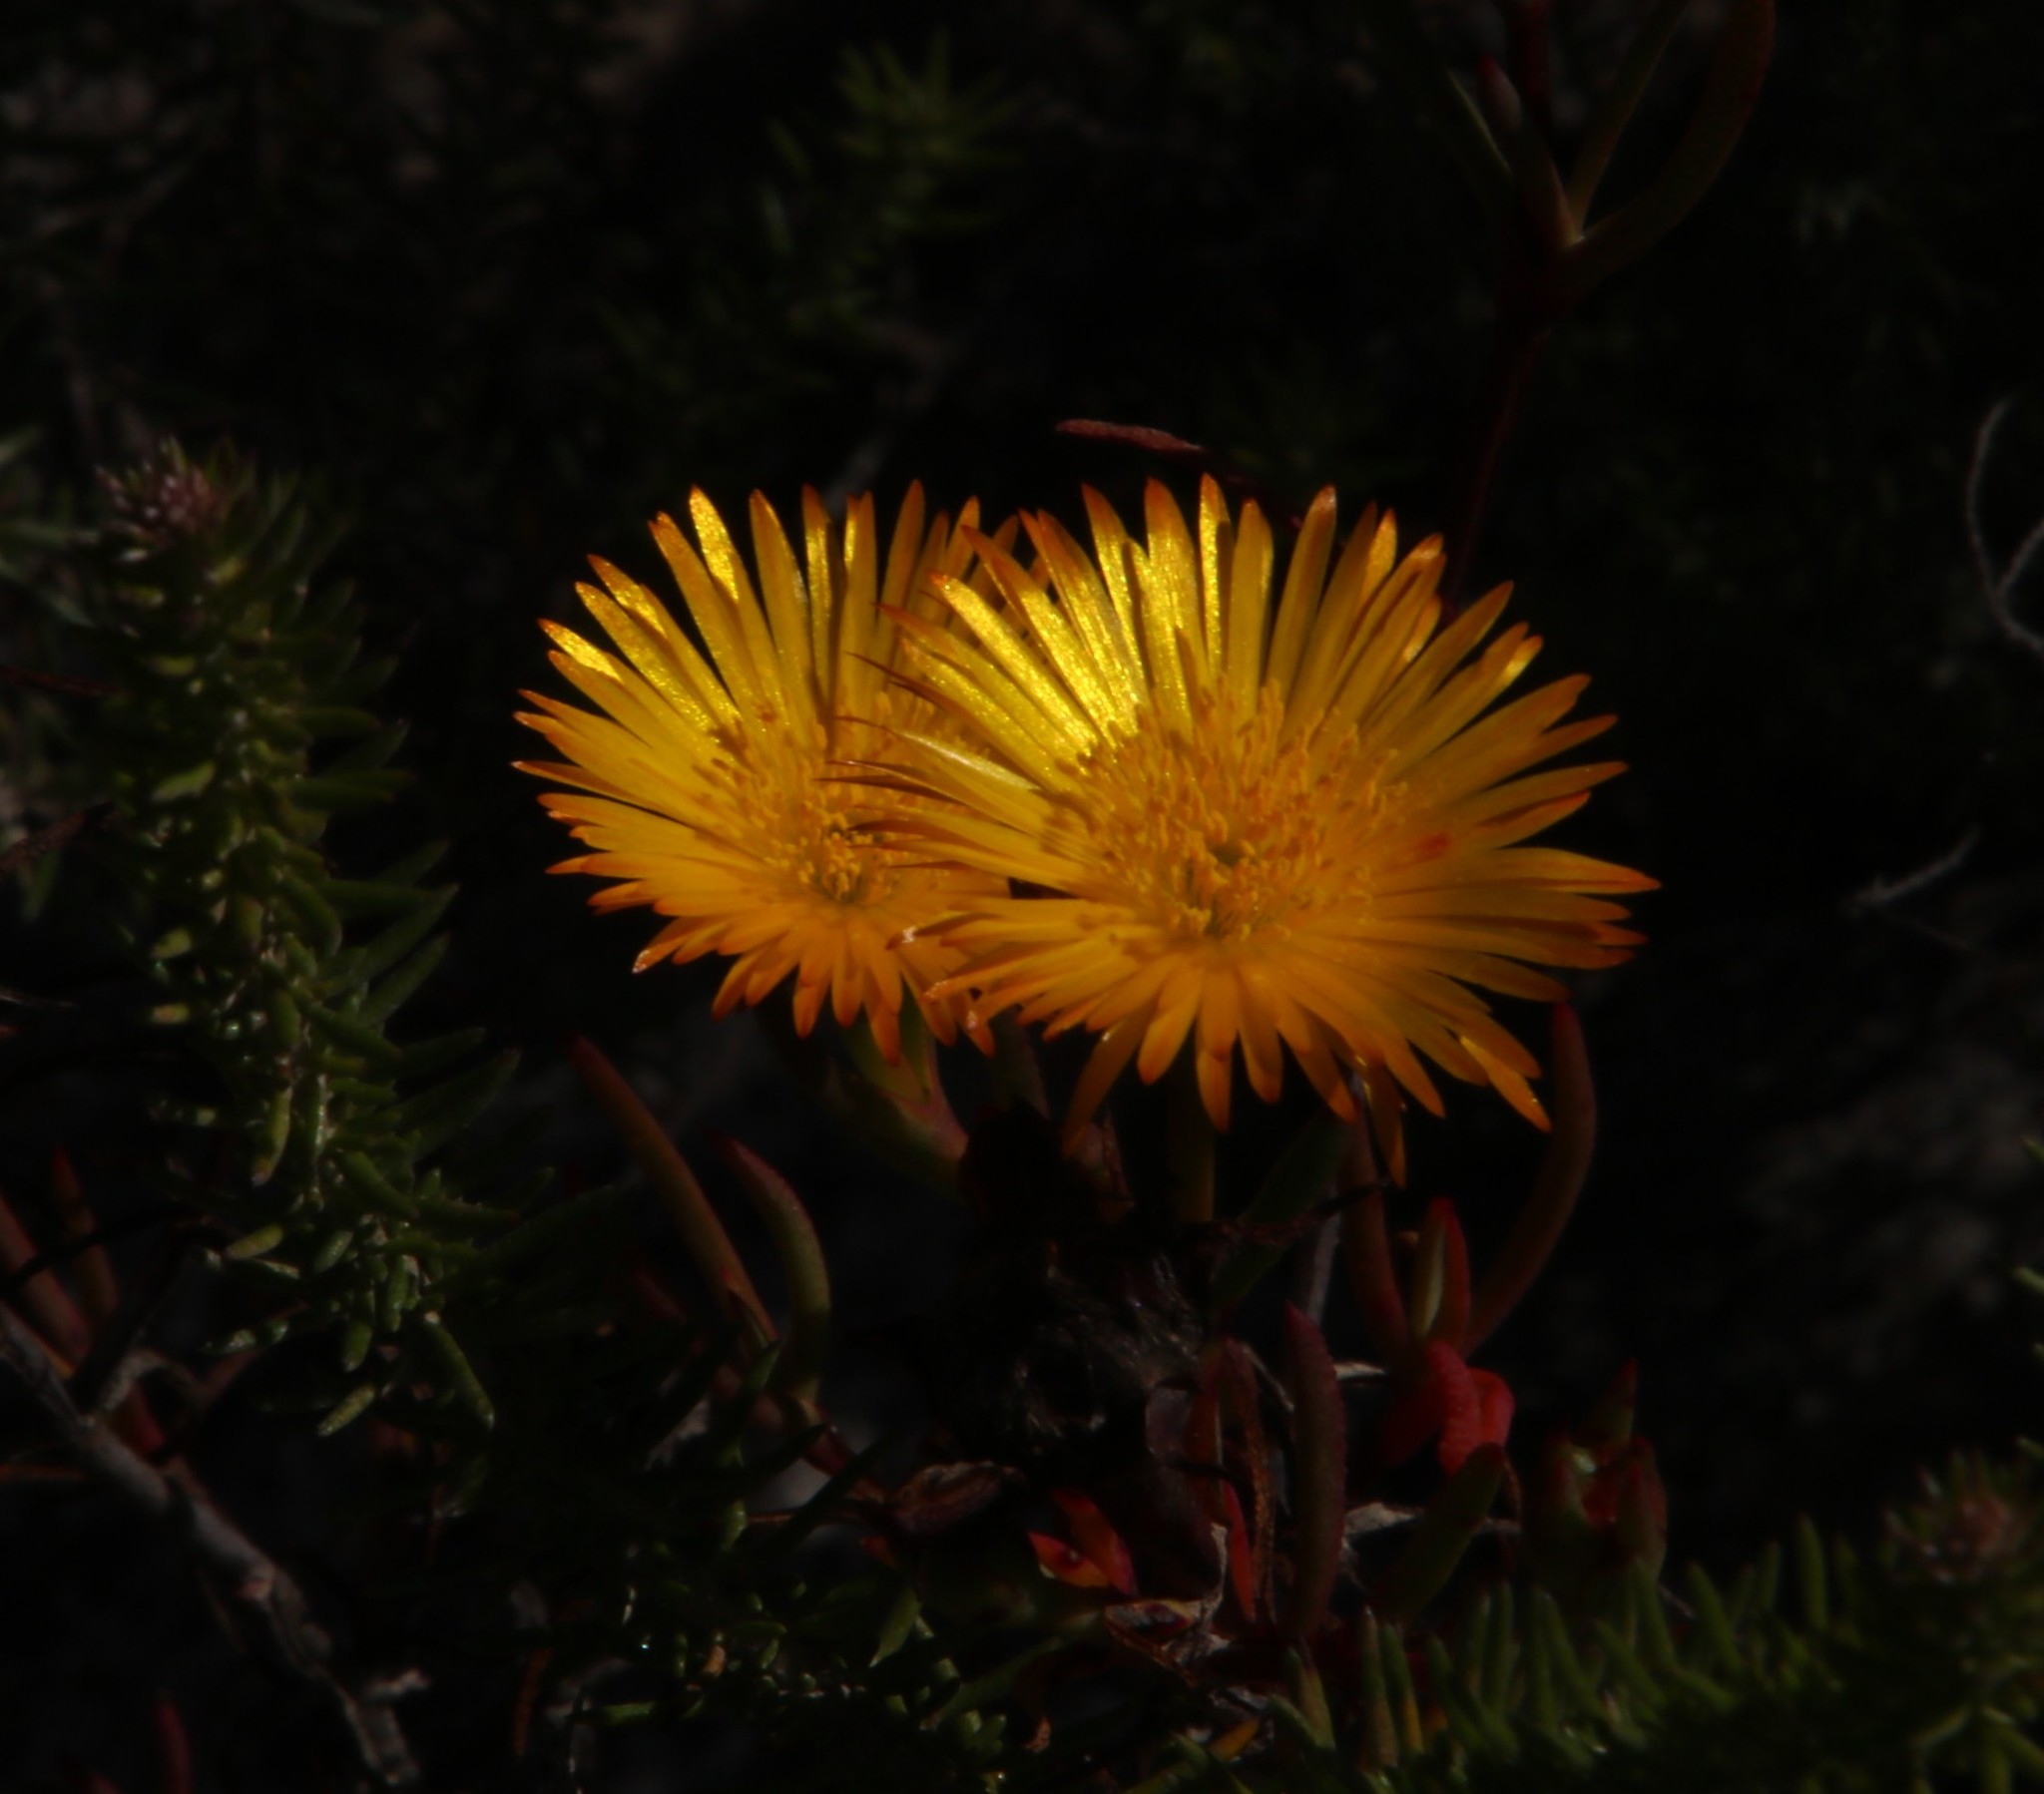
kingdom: Plantae
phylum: Tracheophyta
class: Magnoliopsida
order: Caryophyllales
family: Aizoaceae
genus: Lampranthus
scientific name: Lampranthus bicolor
